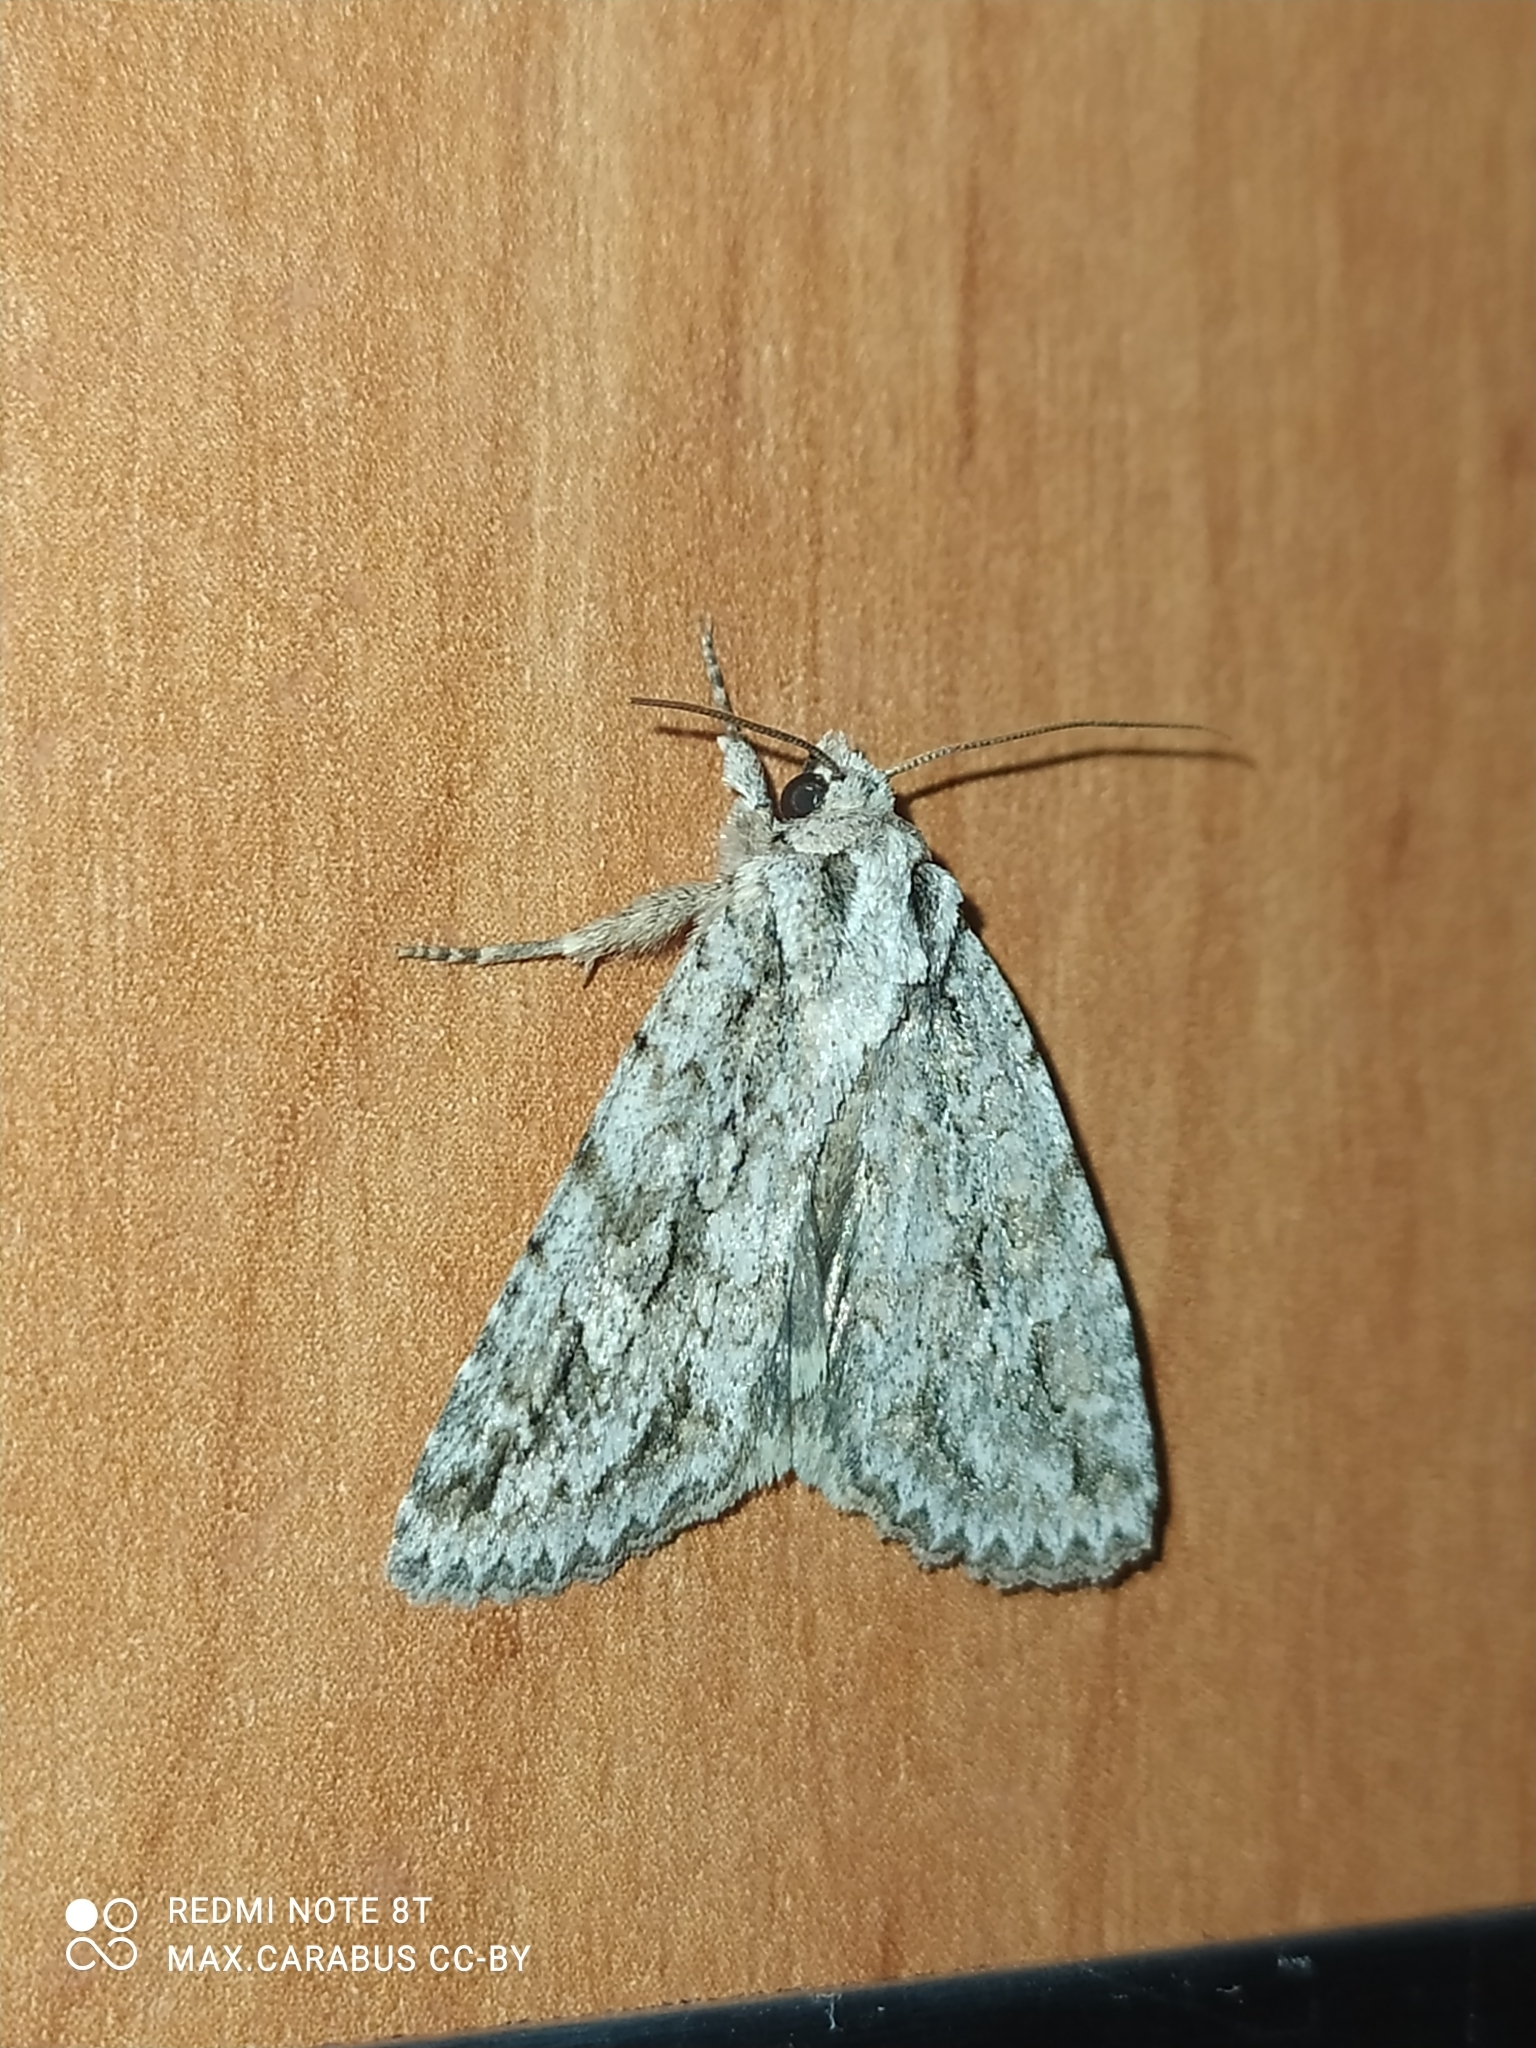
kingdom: Animalia
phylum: Arthropoda
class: Insecta
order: Lepidoptera
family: Noctuidae
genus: Phidrimana
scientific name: Phidrimana amurensis
